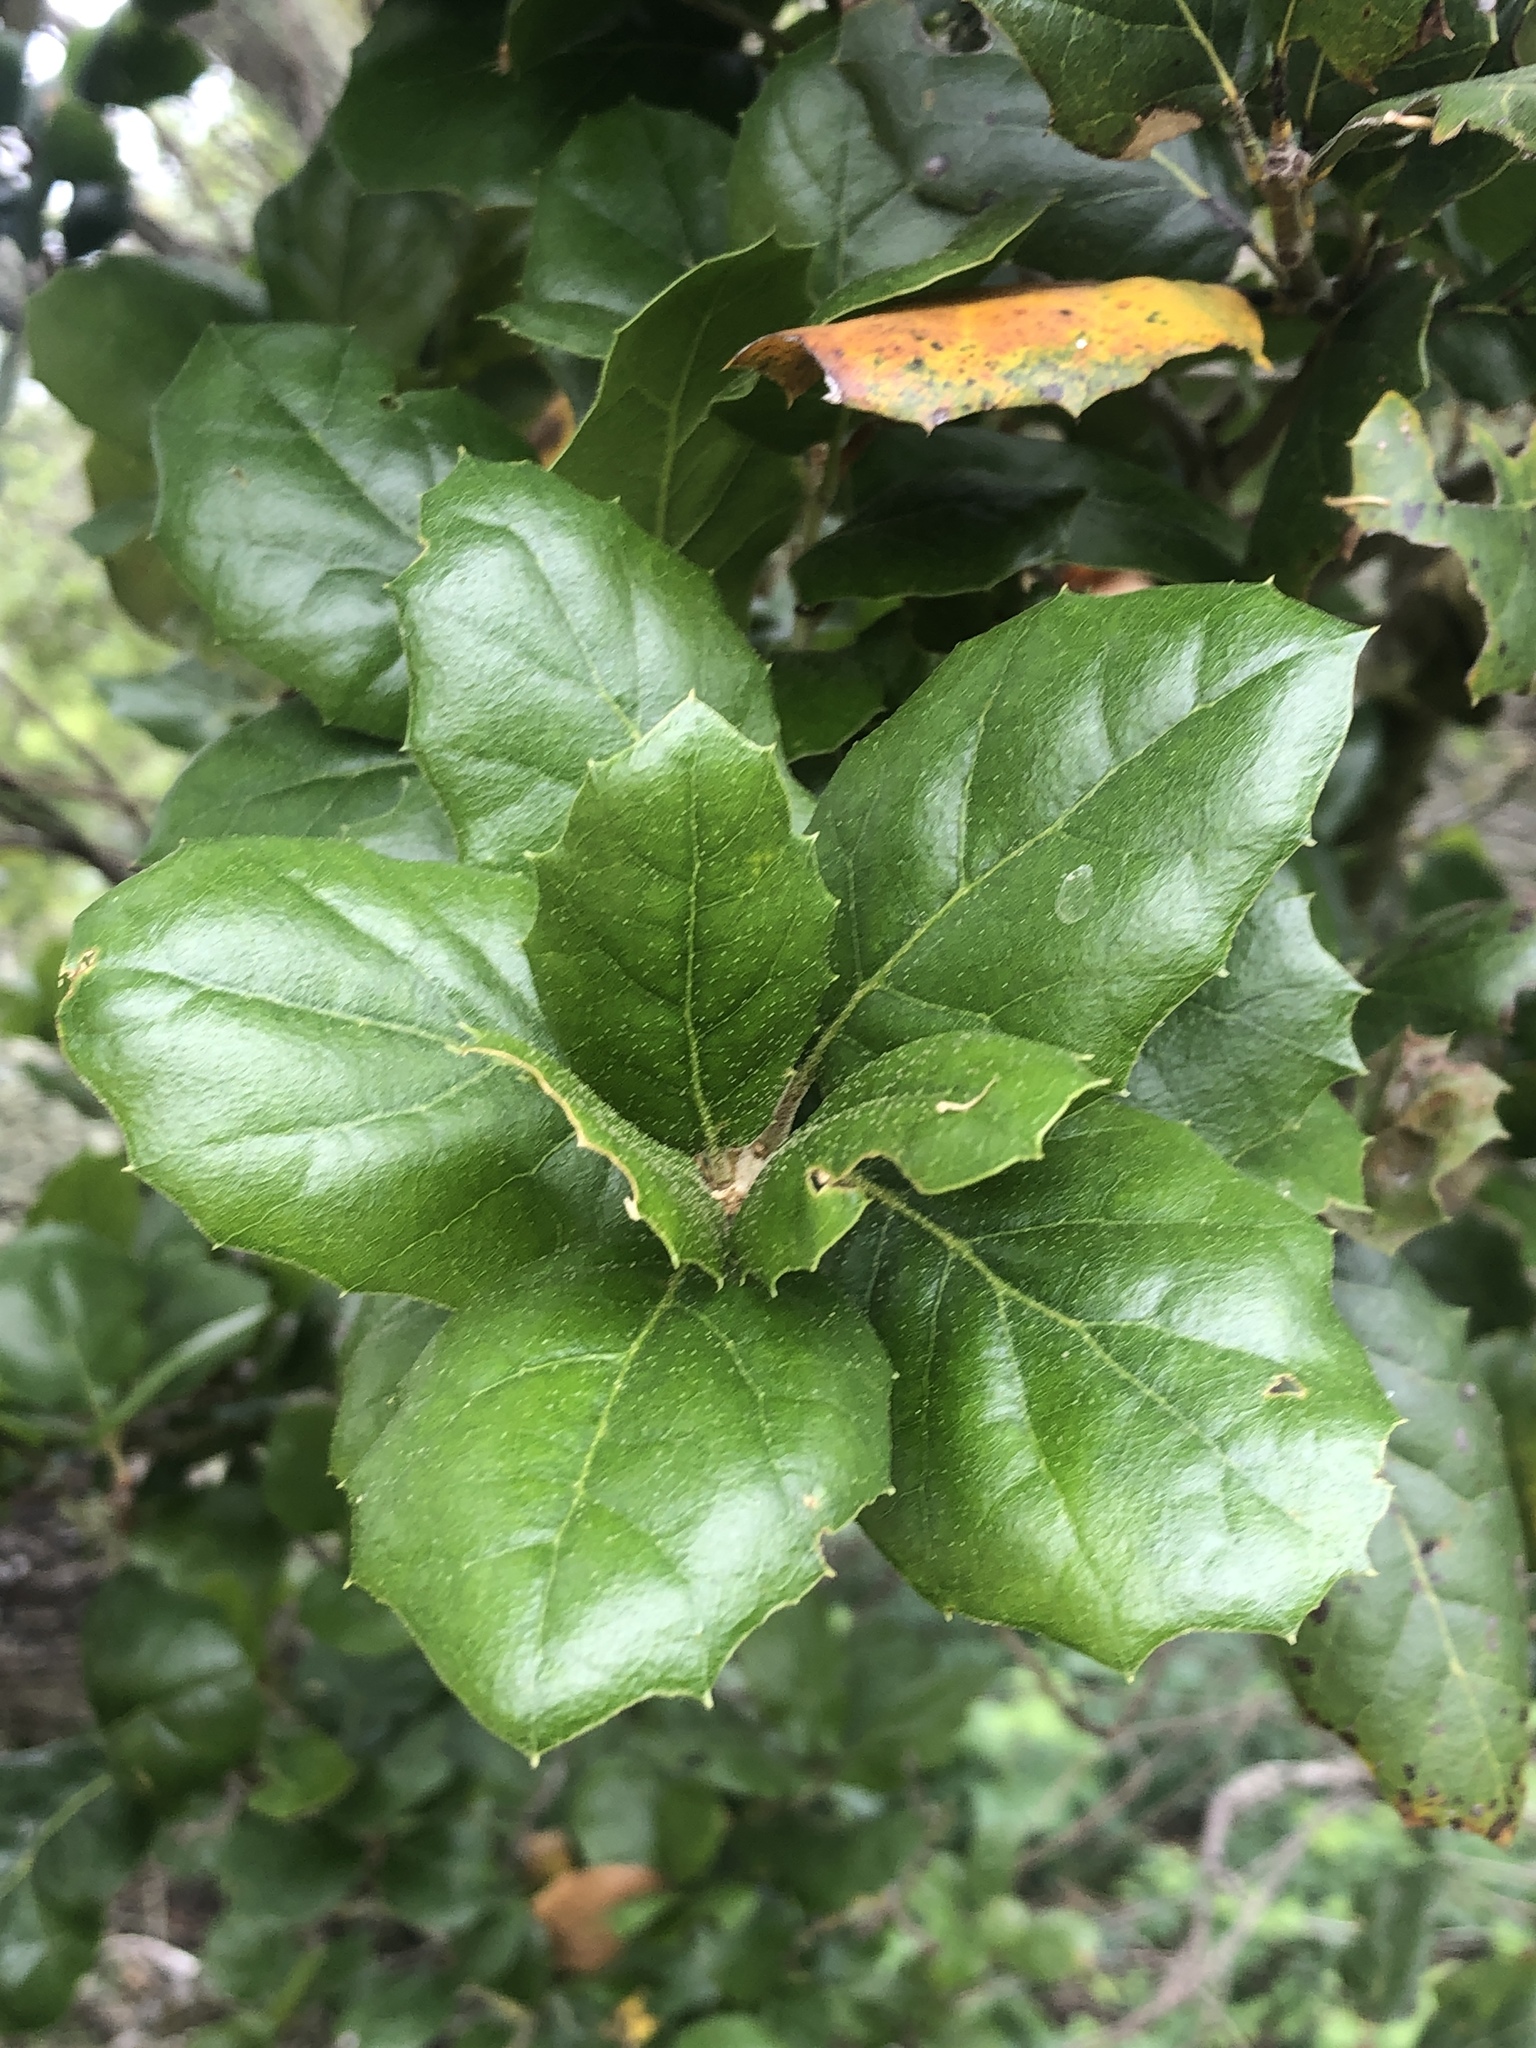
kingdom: Plantae
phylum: Tracheophyta
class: Magnoliopsida
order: Fagales
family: Fagaceae
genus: Quercus
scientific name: Quercus agrifolia
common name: California live oak
